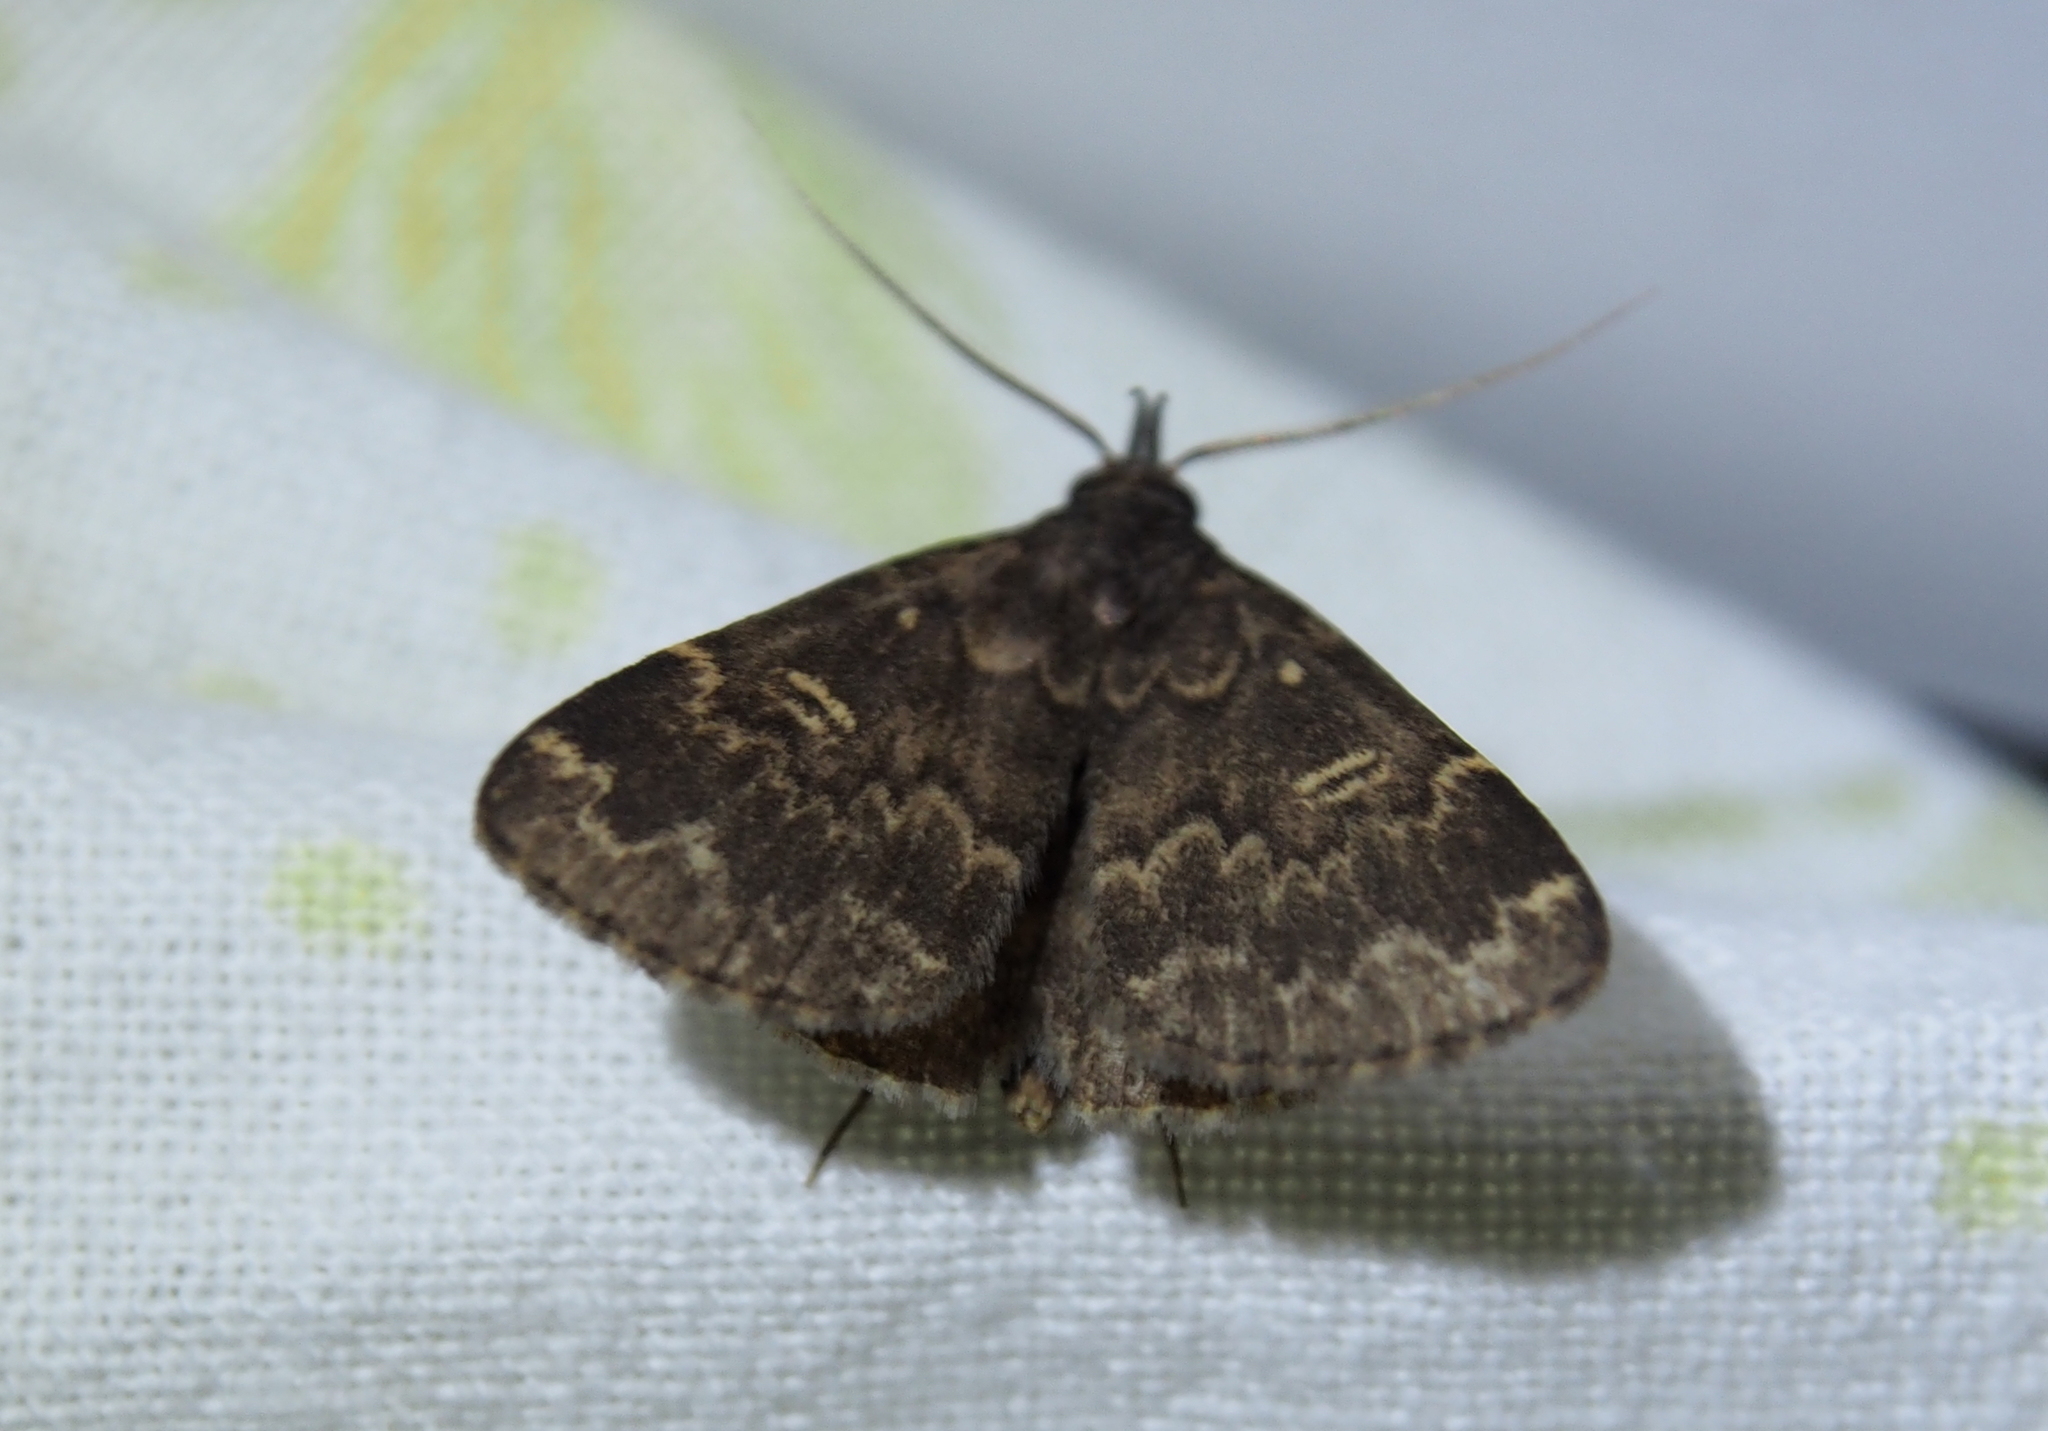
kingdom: Animalia
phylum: Arthropoda
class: Insecta
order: Lepidoptera
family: Erebidae
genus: Idia
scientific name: Idia lubricalis
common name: Twin-striped tabby
